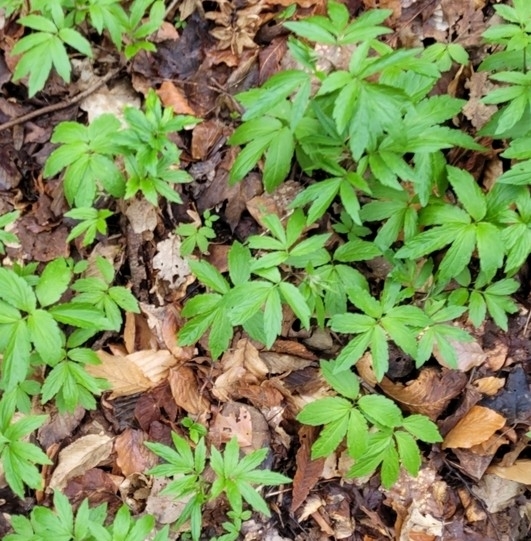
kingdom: Plantae
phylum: Tracheophyta
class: Magnoliopsida
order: Brassicales
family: Brassicaceae
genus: Cardamine
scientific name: Cardamine bulbifera
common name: Coralroot bittercress
